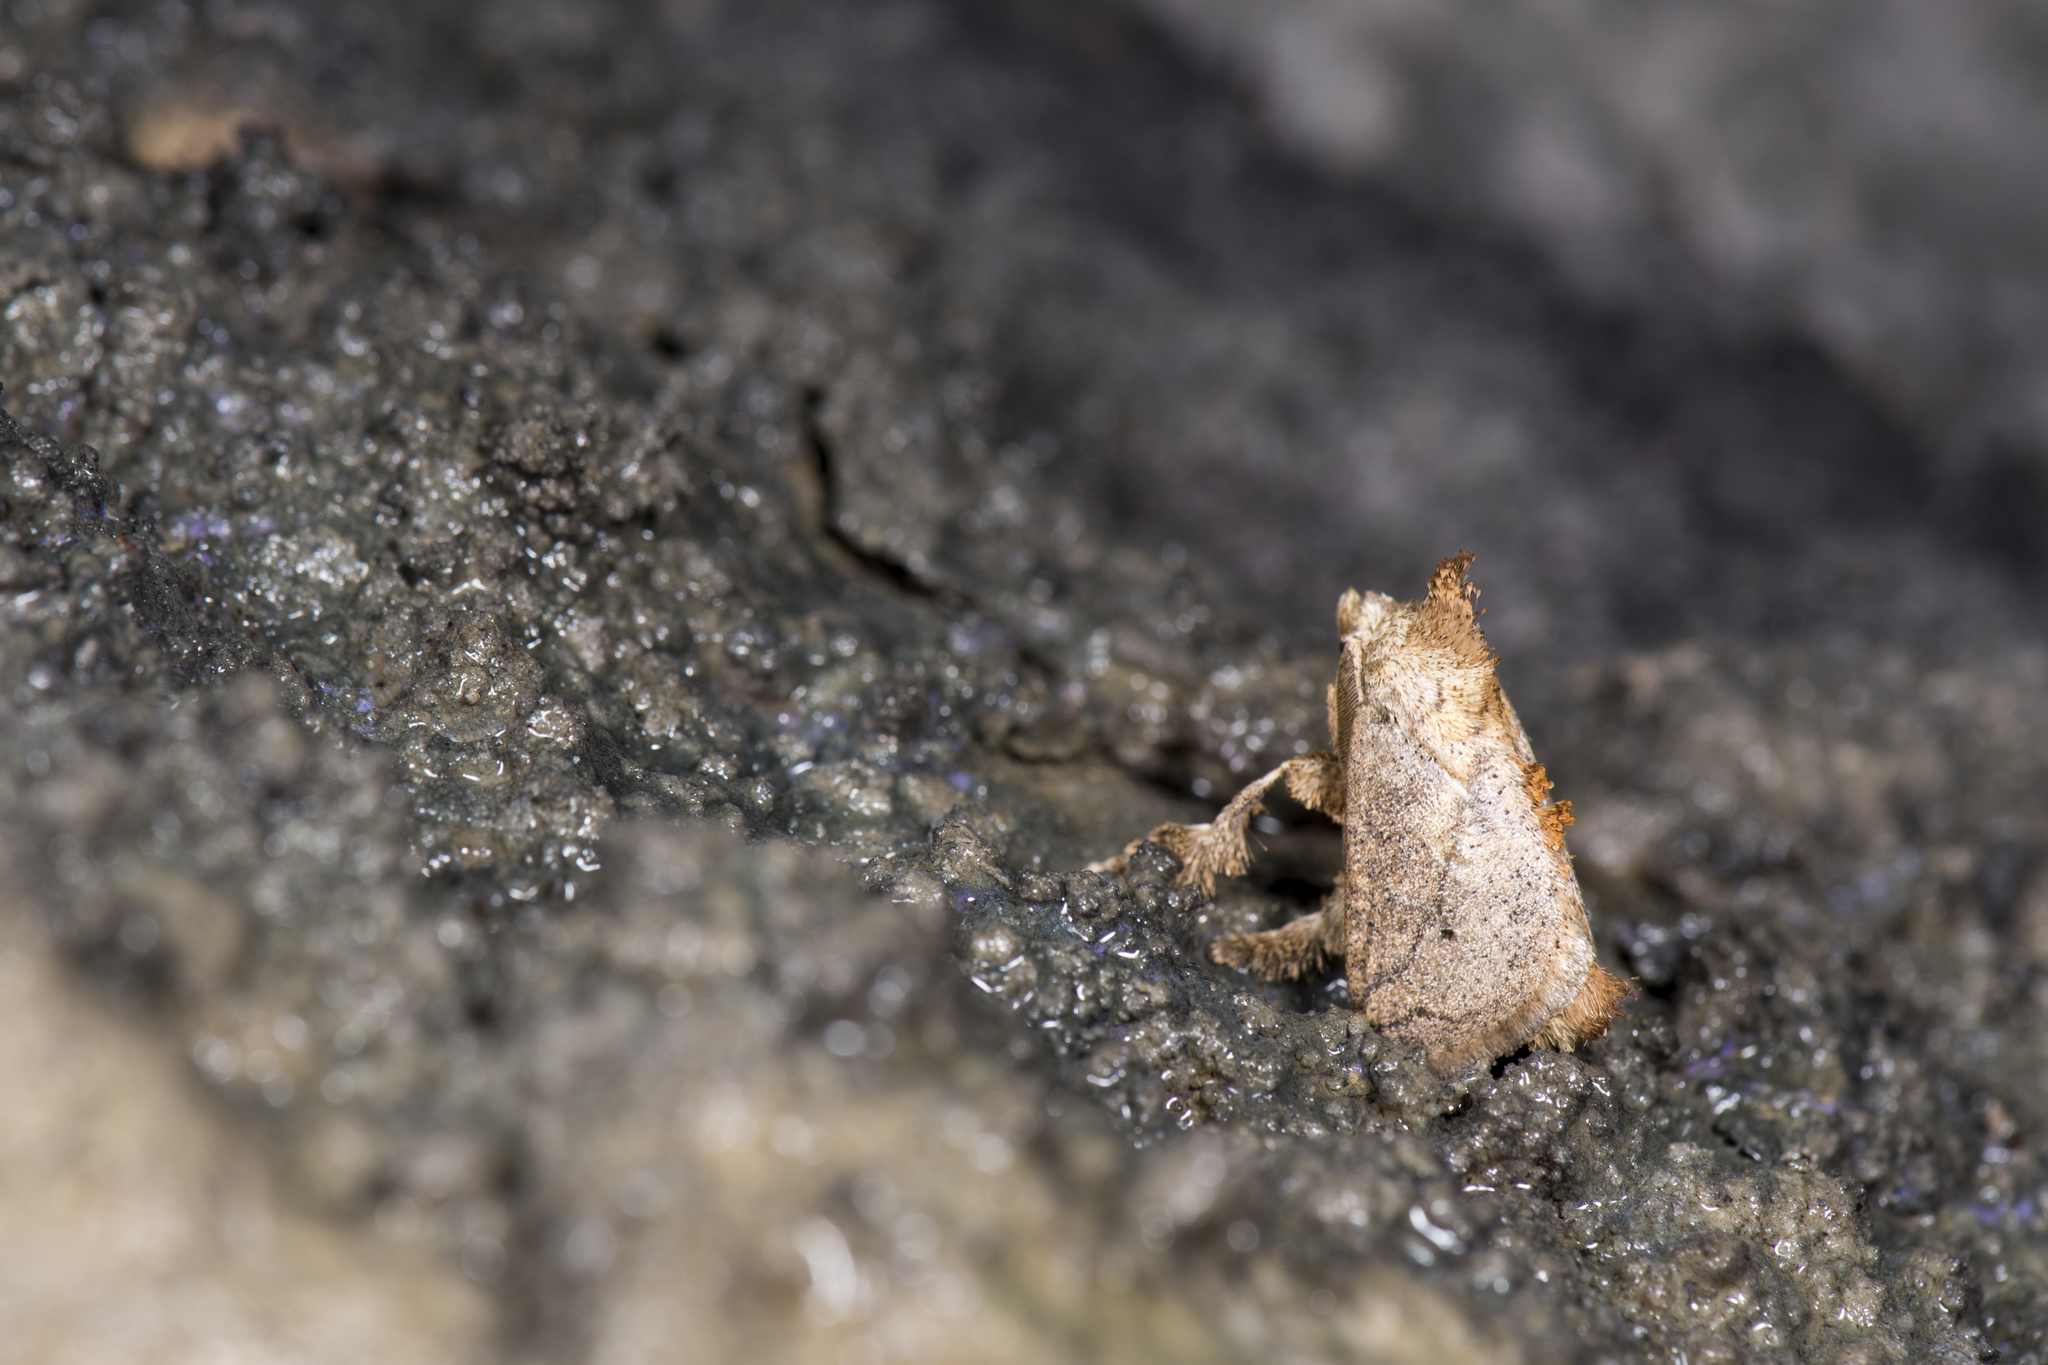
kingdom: Animalia
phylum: Arthropoda
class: Insecta
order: Lepidoptera
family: Limacodidae
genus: Susica
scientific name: Susica sinensis
